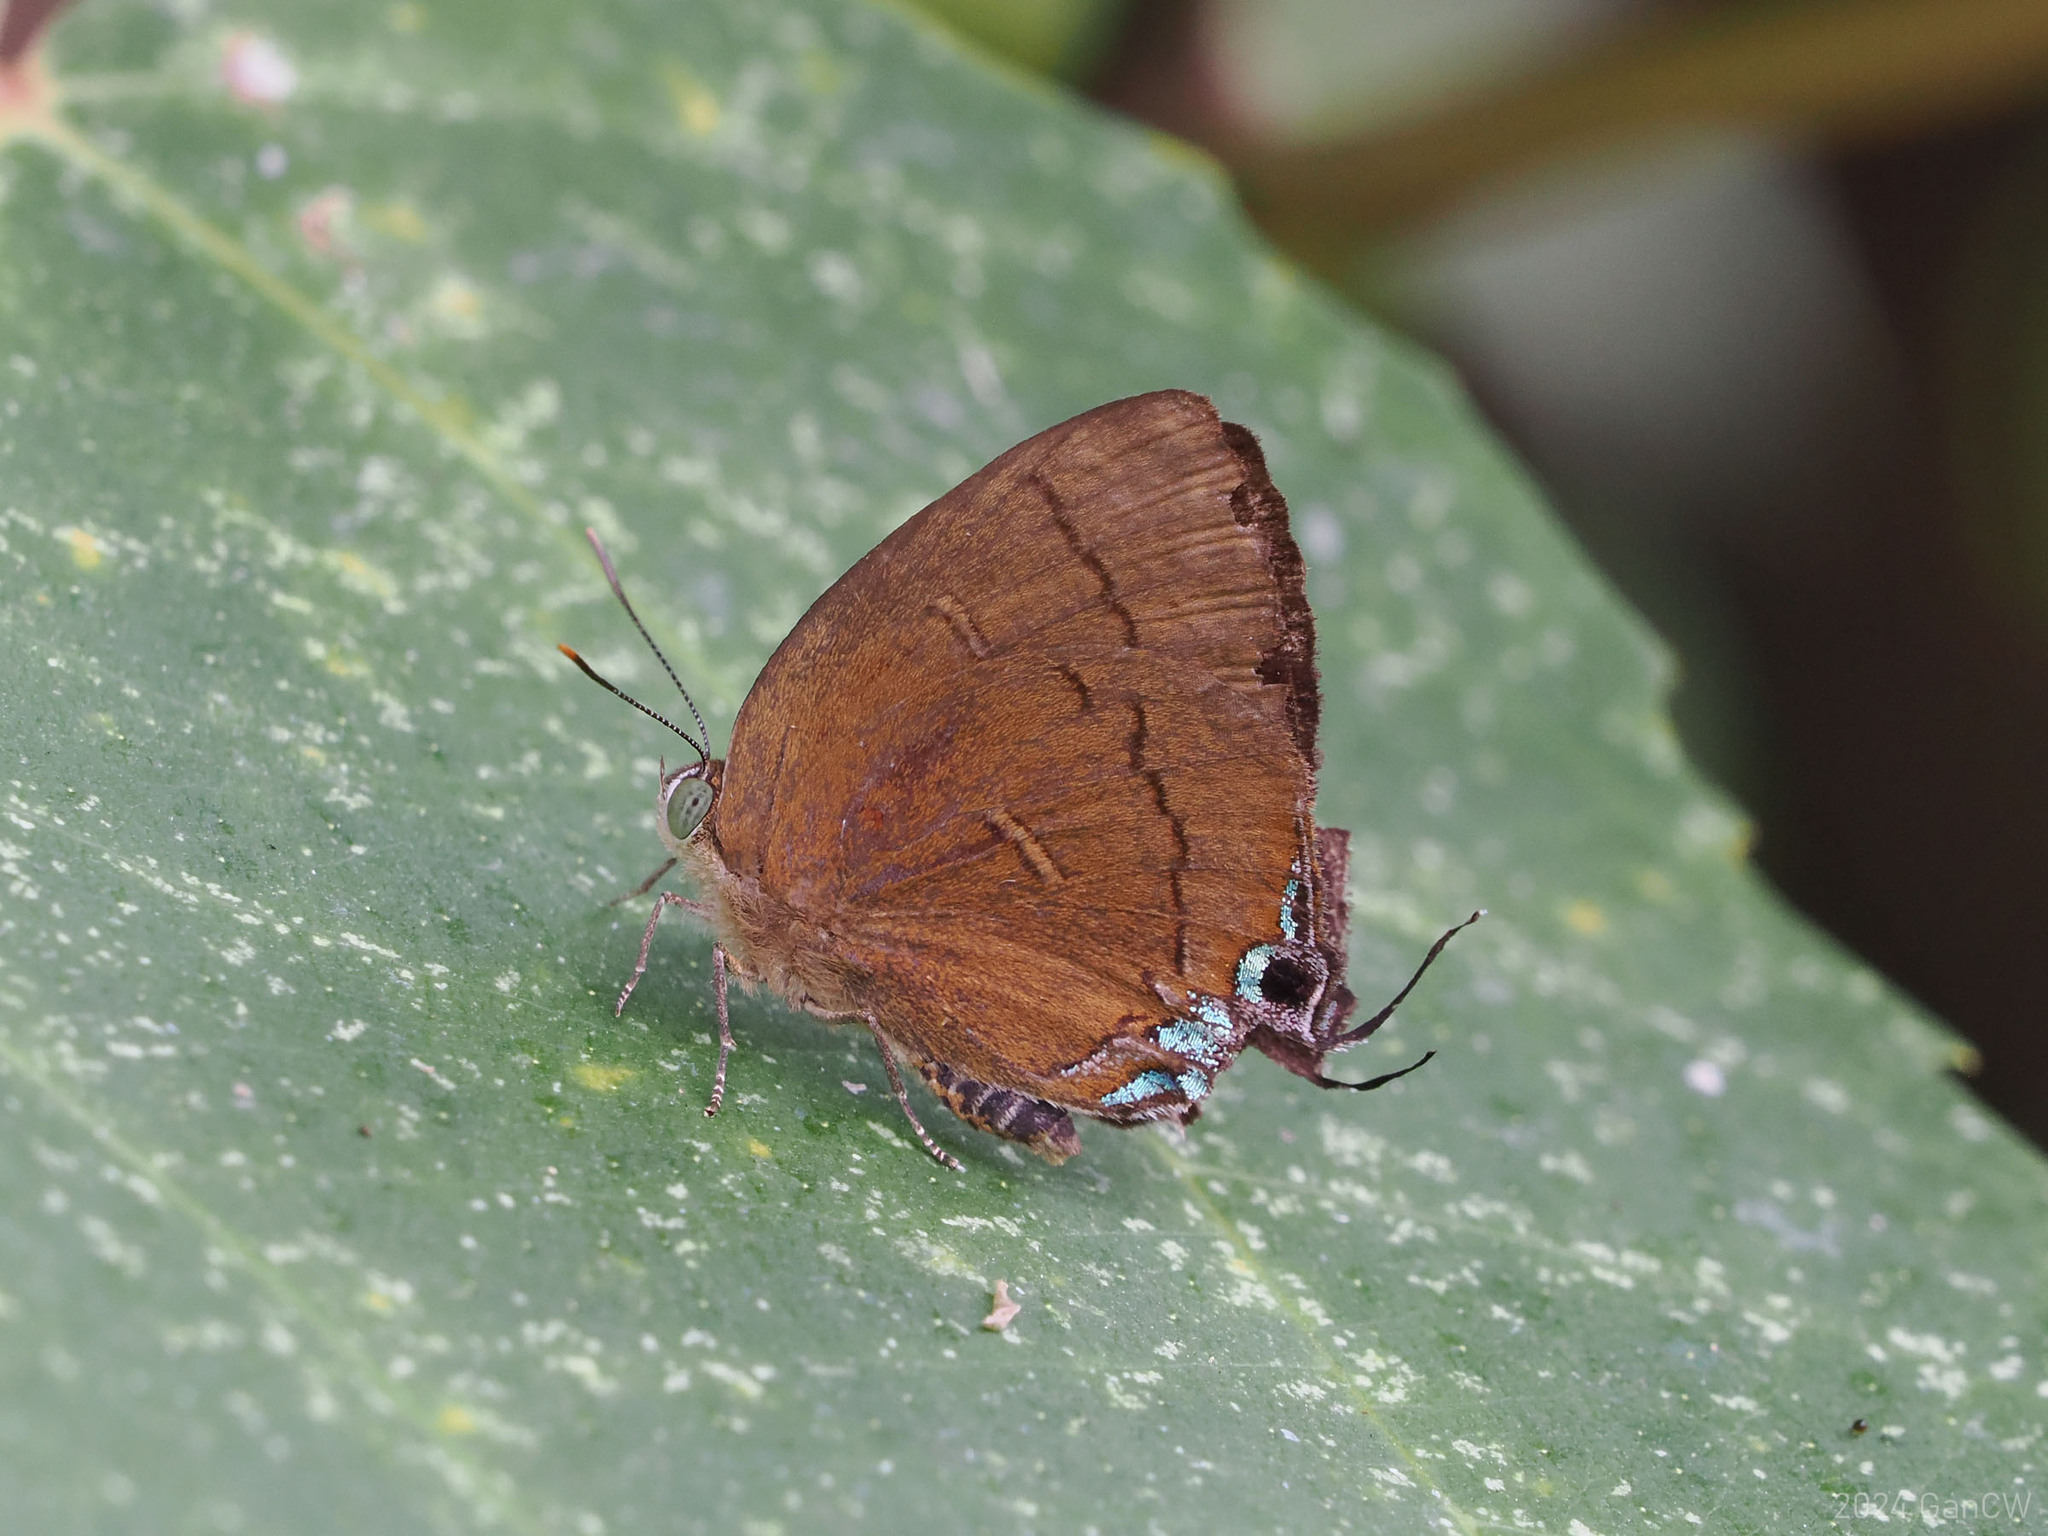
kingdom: Animalia
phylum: Arthropoda
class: Insecta
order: Lepidoptera
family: Lycaenidae
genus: Remelana
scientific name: Remelana jangala
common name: Chocolate royal
